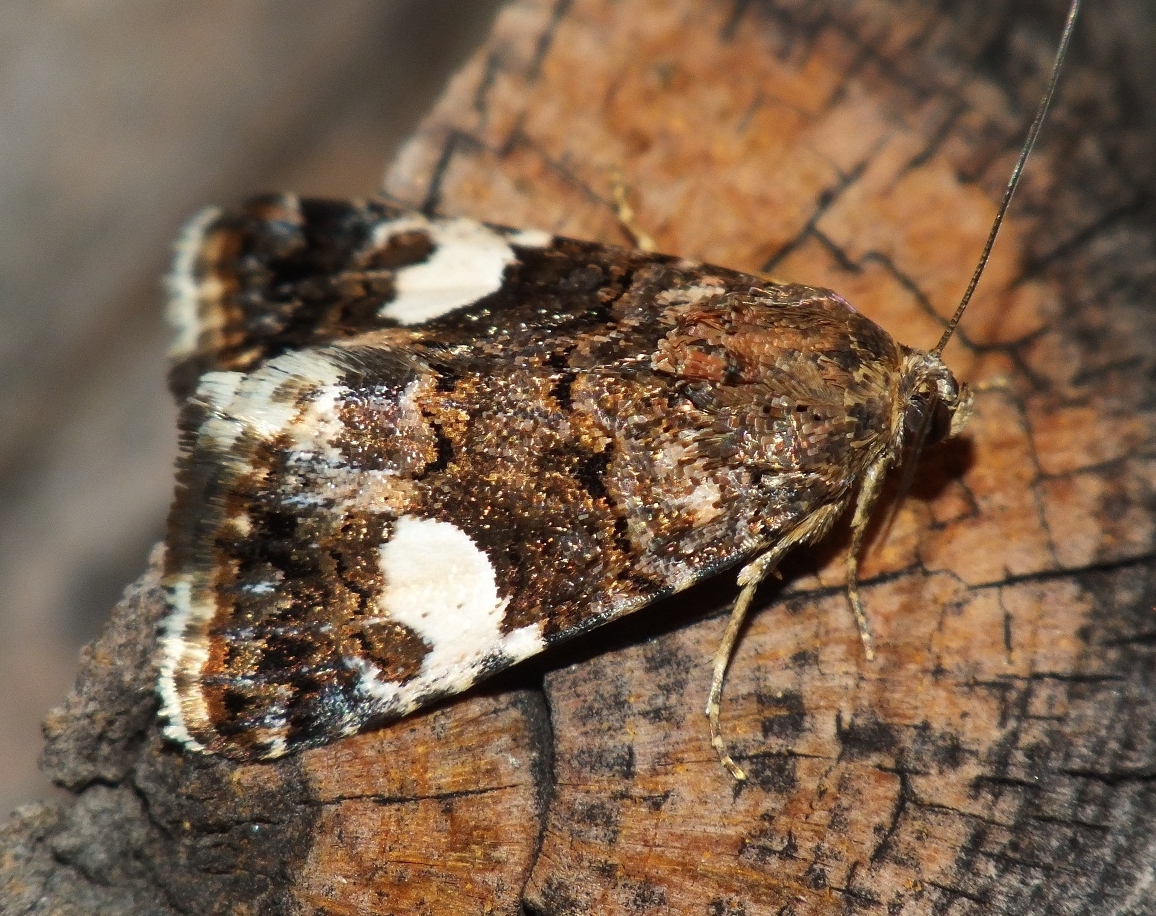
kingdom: Animalia
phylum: Arthropoda
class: Insecta
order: Lepidoptera
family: Erebidae
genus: Tyta
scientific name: Tyta luctuosa
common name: Four-spotted
